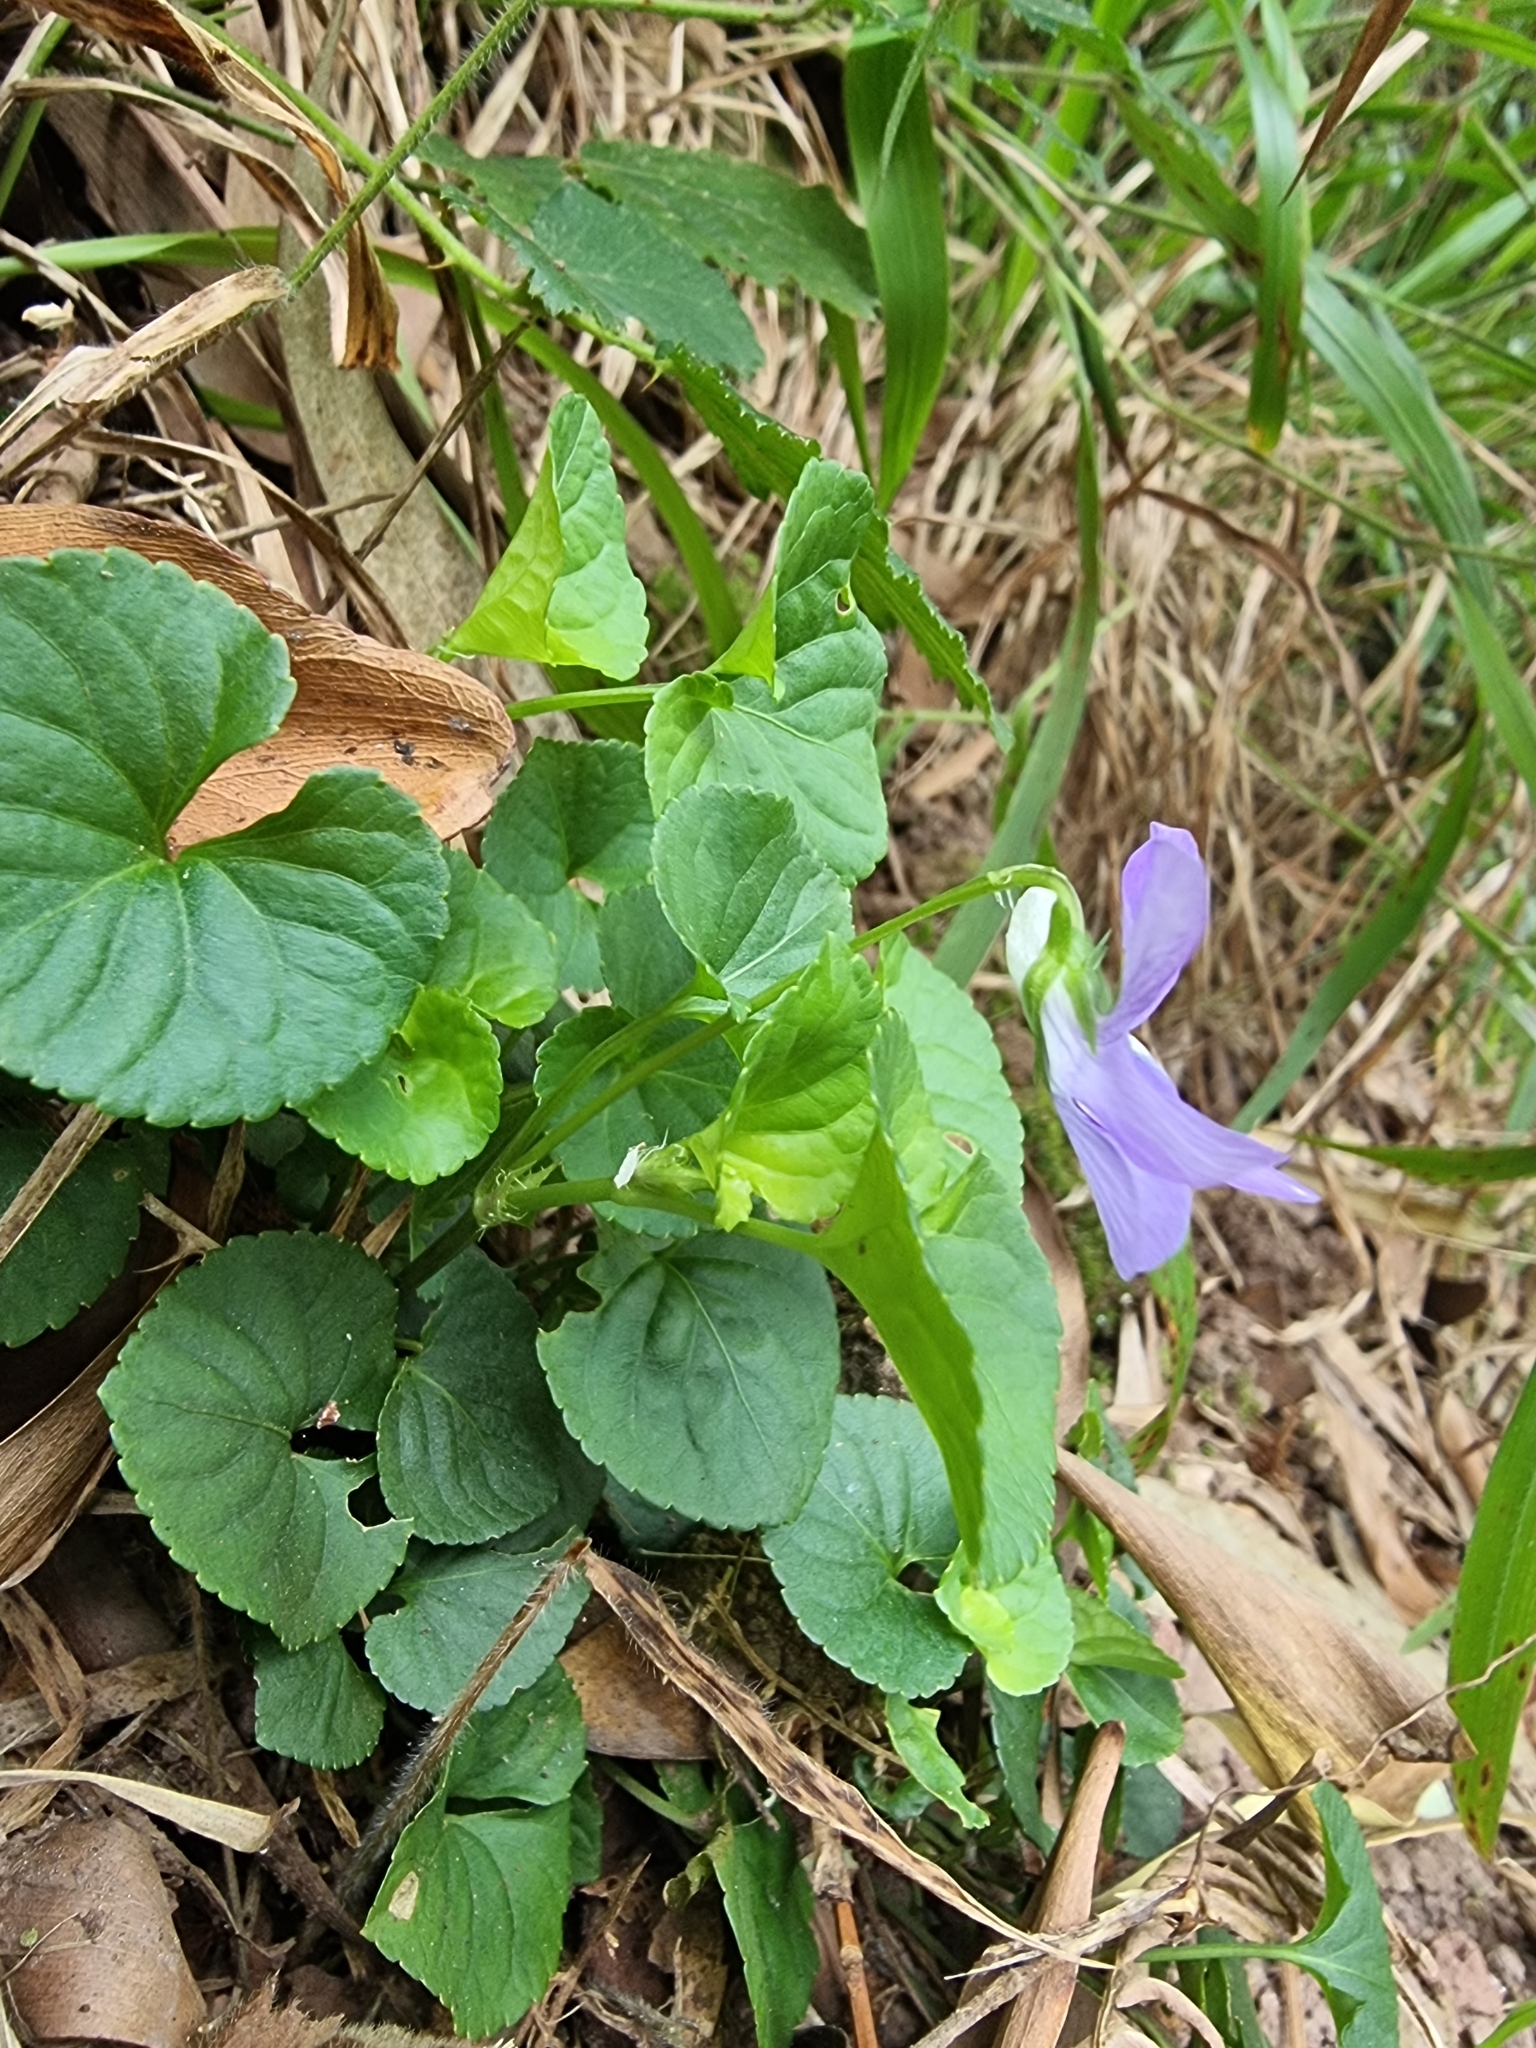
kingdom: Plantae
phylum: Tracheophyta
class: Magnoliopsida
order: Malpighiales
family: Violaceae
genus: Viola
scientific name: Viola riviniana
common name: Common dog-violet
